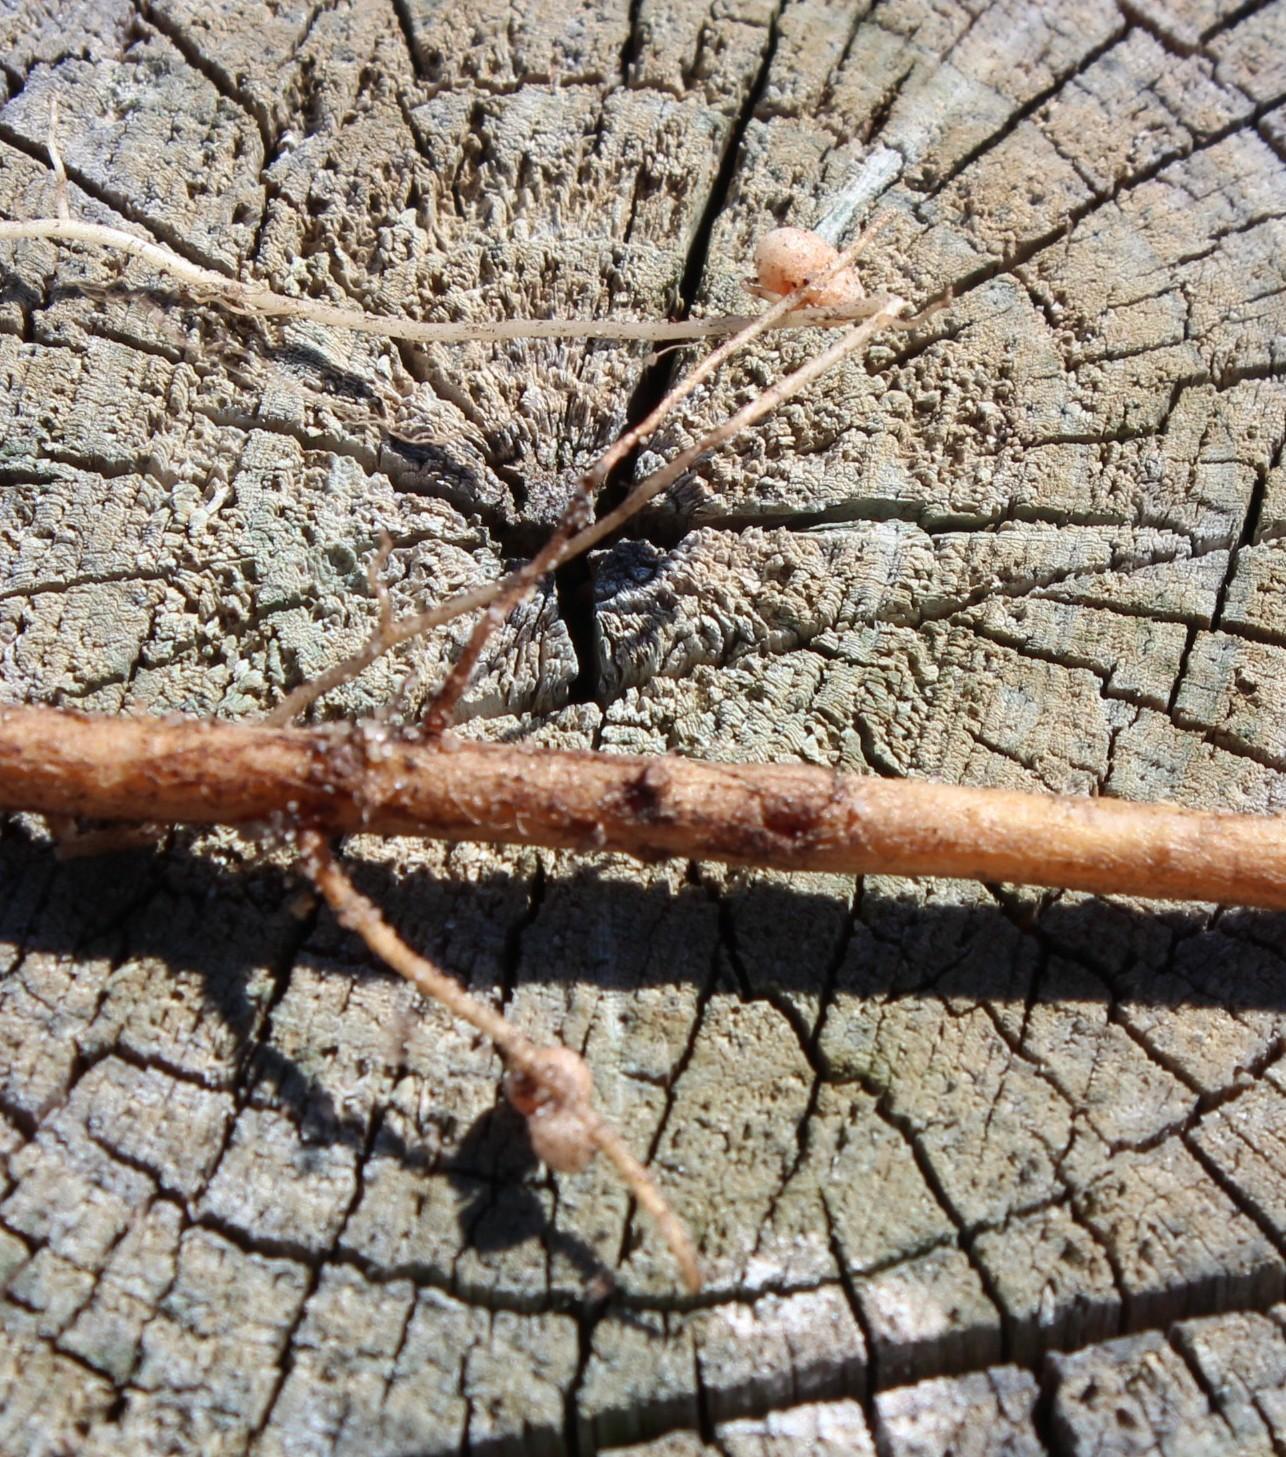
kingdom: Bacteria
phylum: Proteobacteria
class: Alphaproteobacteria
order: Rhizobiales
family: Rhizobiaceae
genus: Rhizobium
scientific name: Rhizobium
